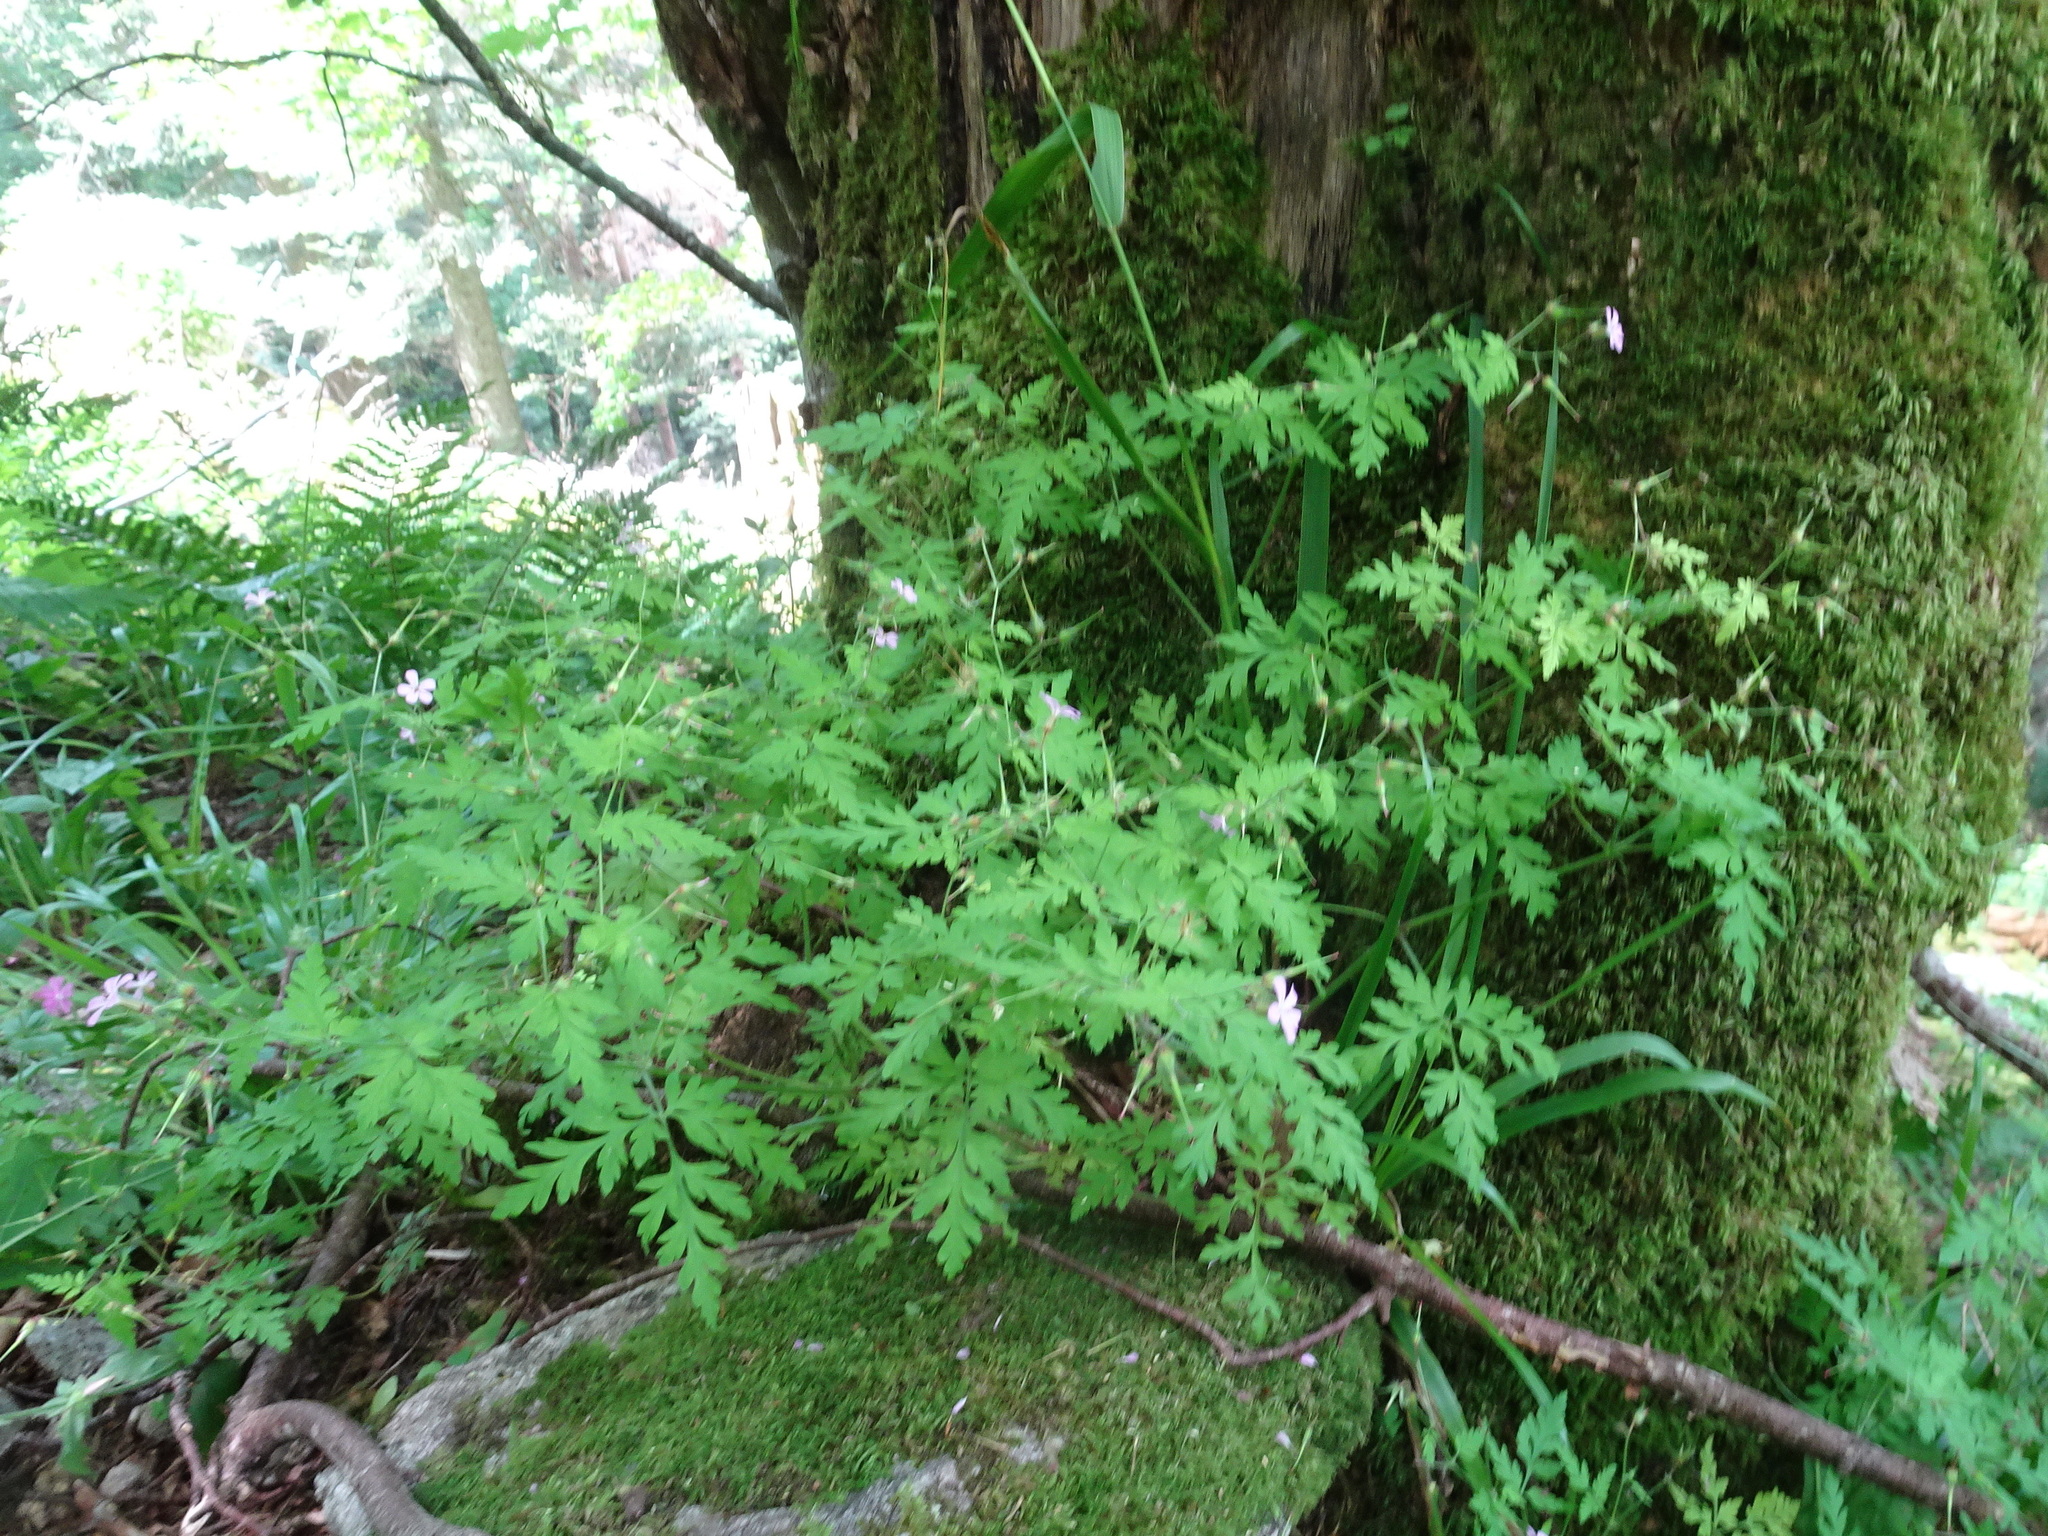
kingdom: Plantae
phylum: Tracheophyta
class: Magnoliopsida
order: Geraniales
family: Geraniaceae
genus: Geranium
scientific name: Geranium robertianum
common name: Herb-robert
